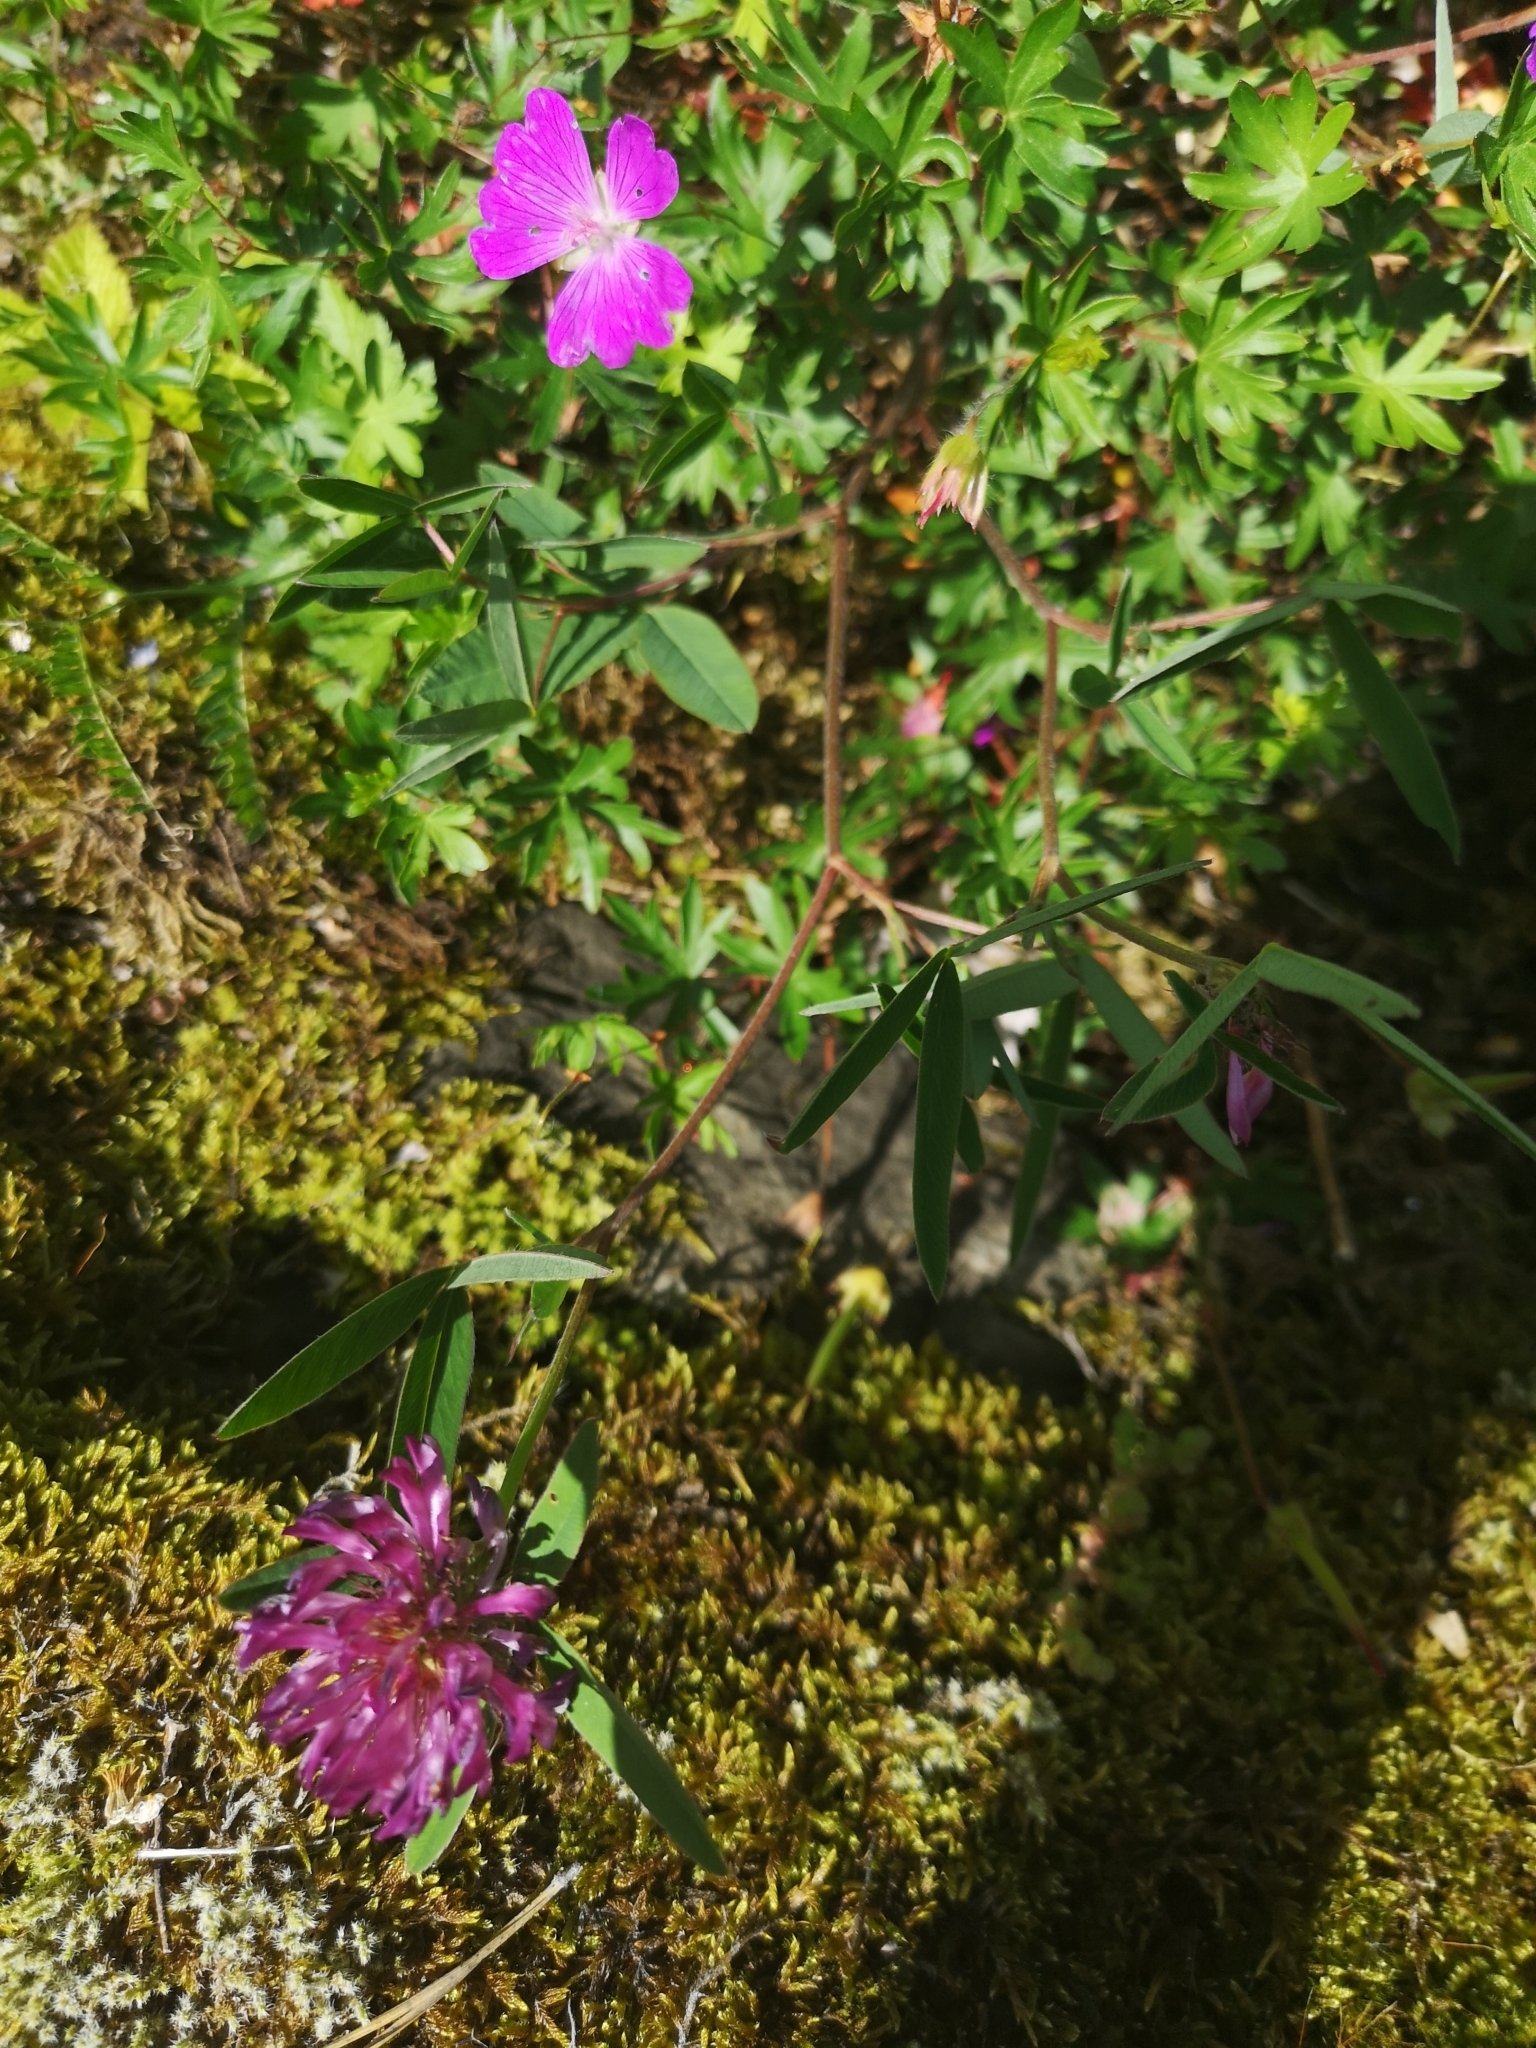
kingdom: Plantae
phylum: Tracheophyta
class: Magnoliopsida
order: Fabales
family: Fabaceae
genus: Trifolium
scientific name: Trifolium medium
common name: Zigzag clover
